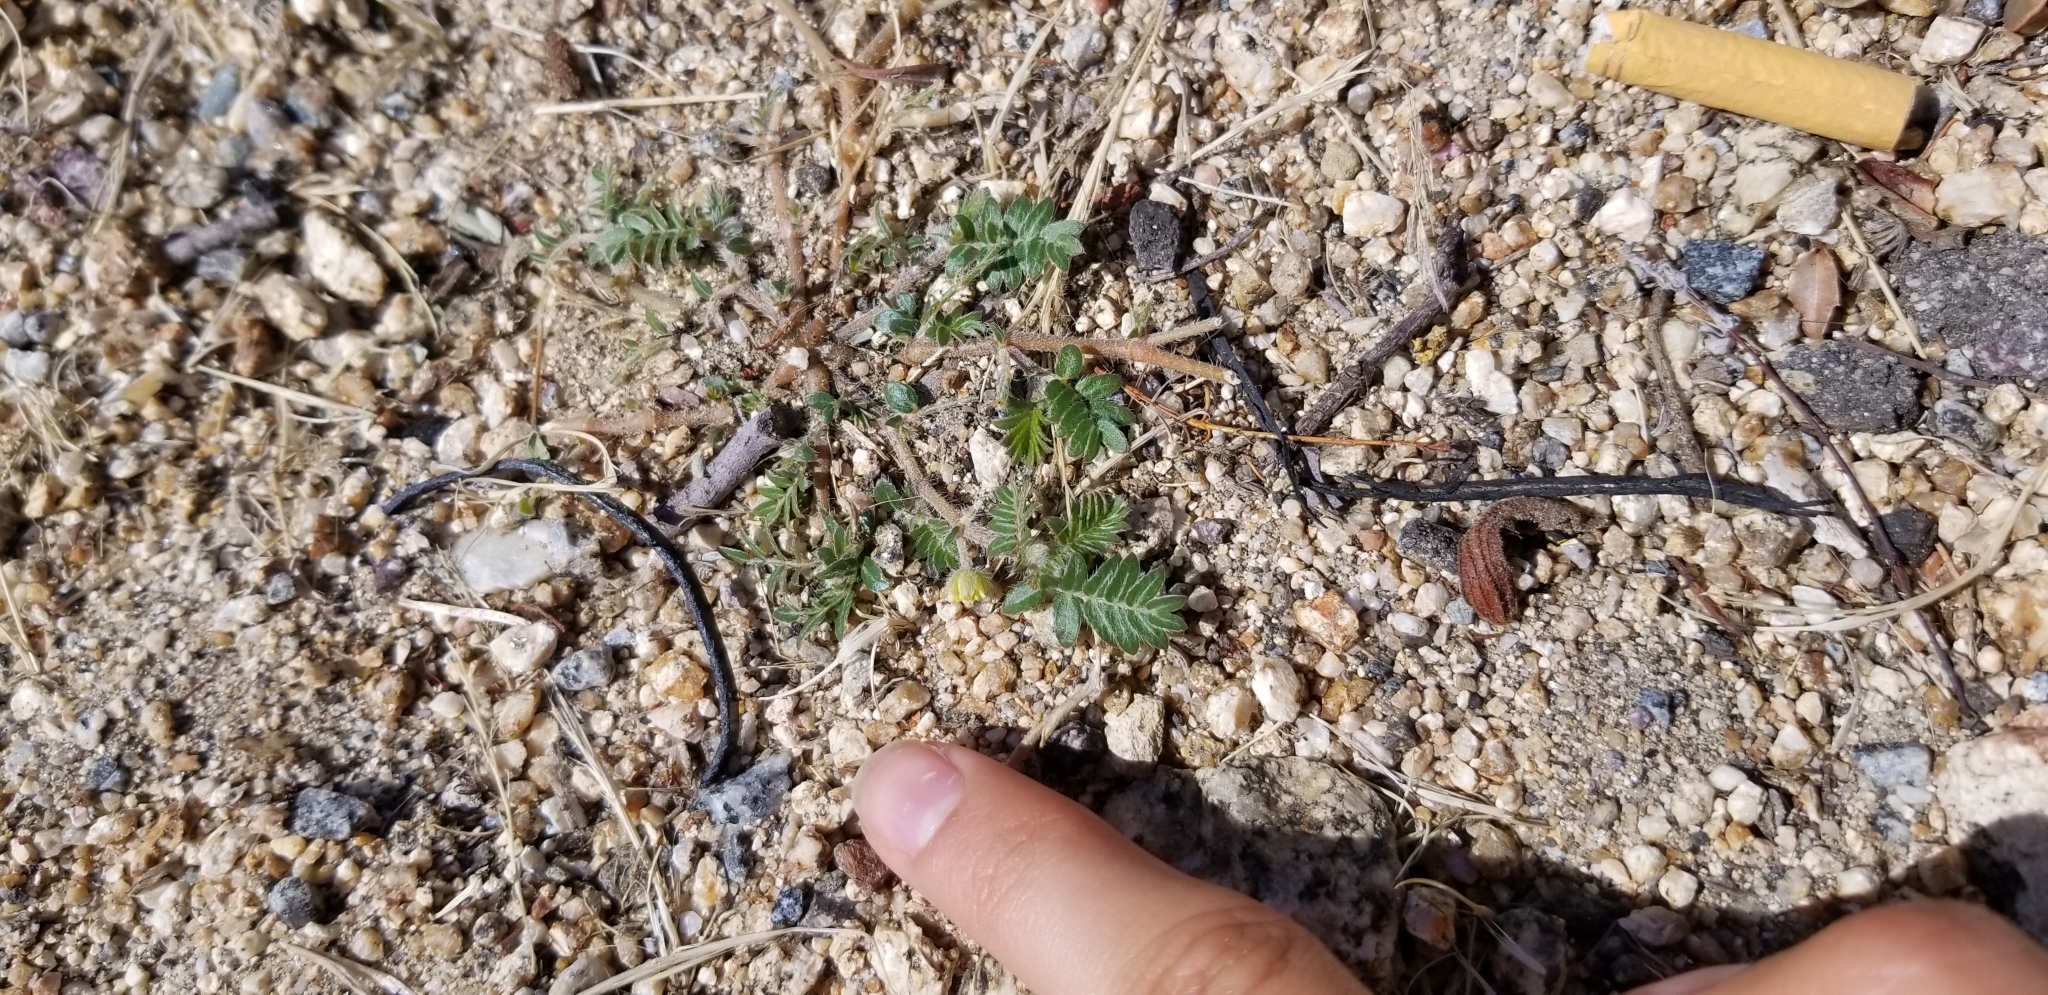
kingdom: Plantae
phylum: Tracheophyta
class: Magnoliopsida
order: Zygophyllales
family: Zygophyllaceae
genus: Tribulus
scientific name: Tribulus terrestris
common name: Puncturevine
